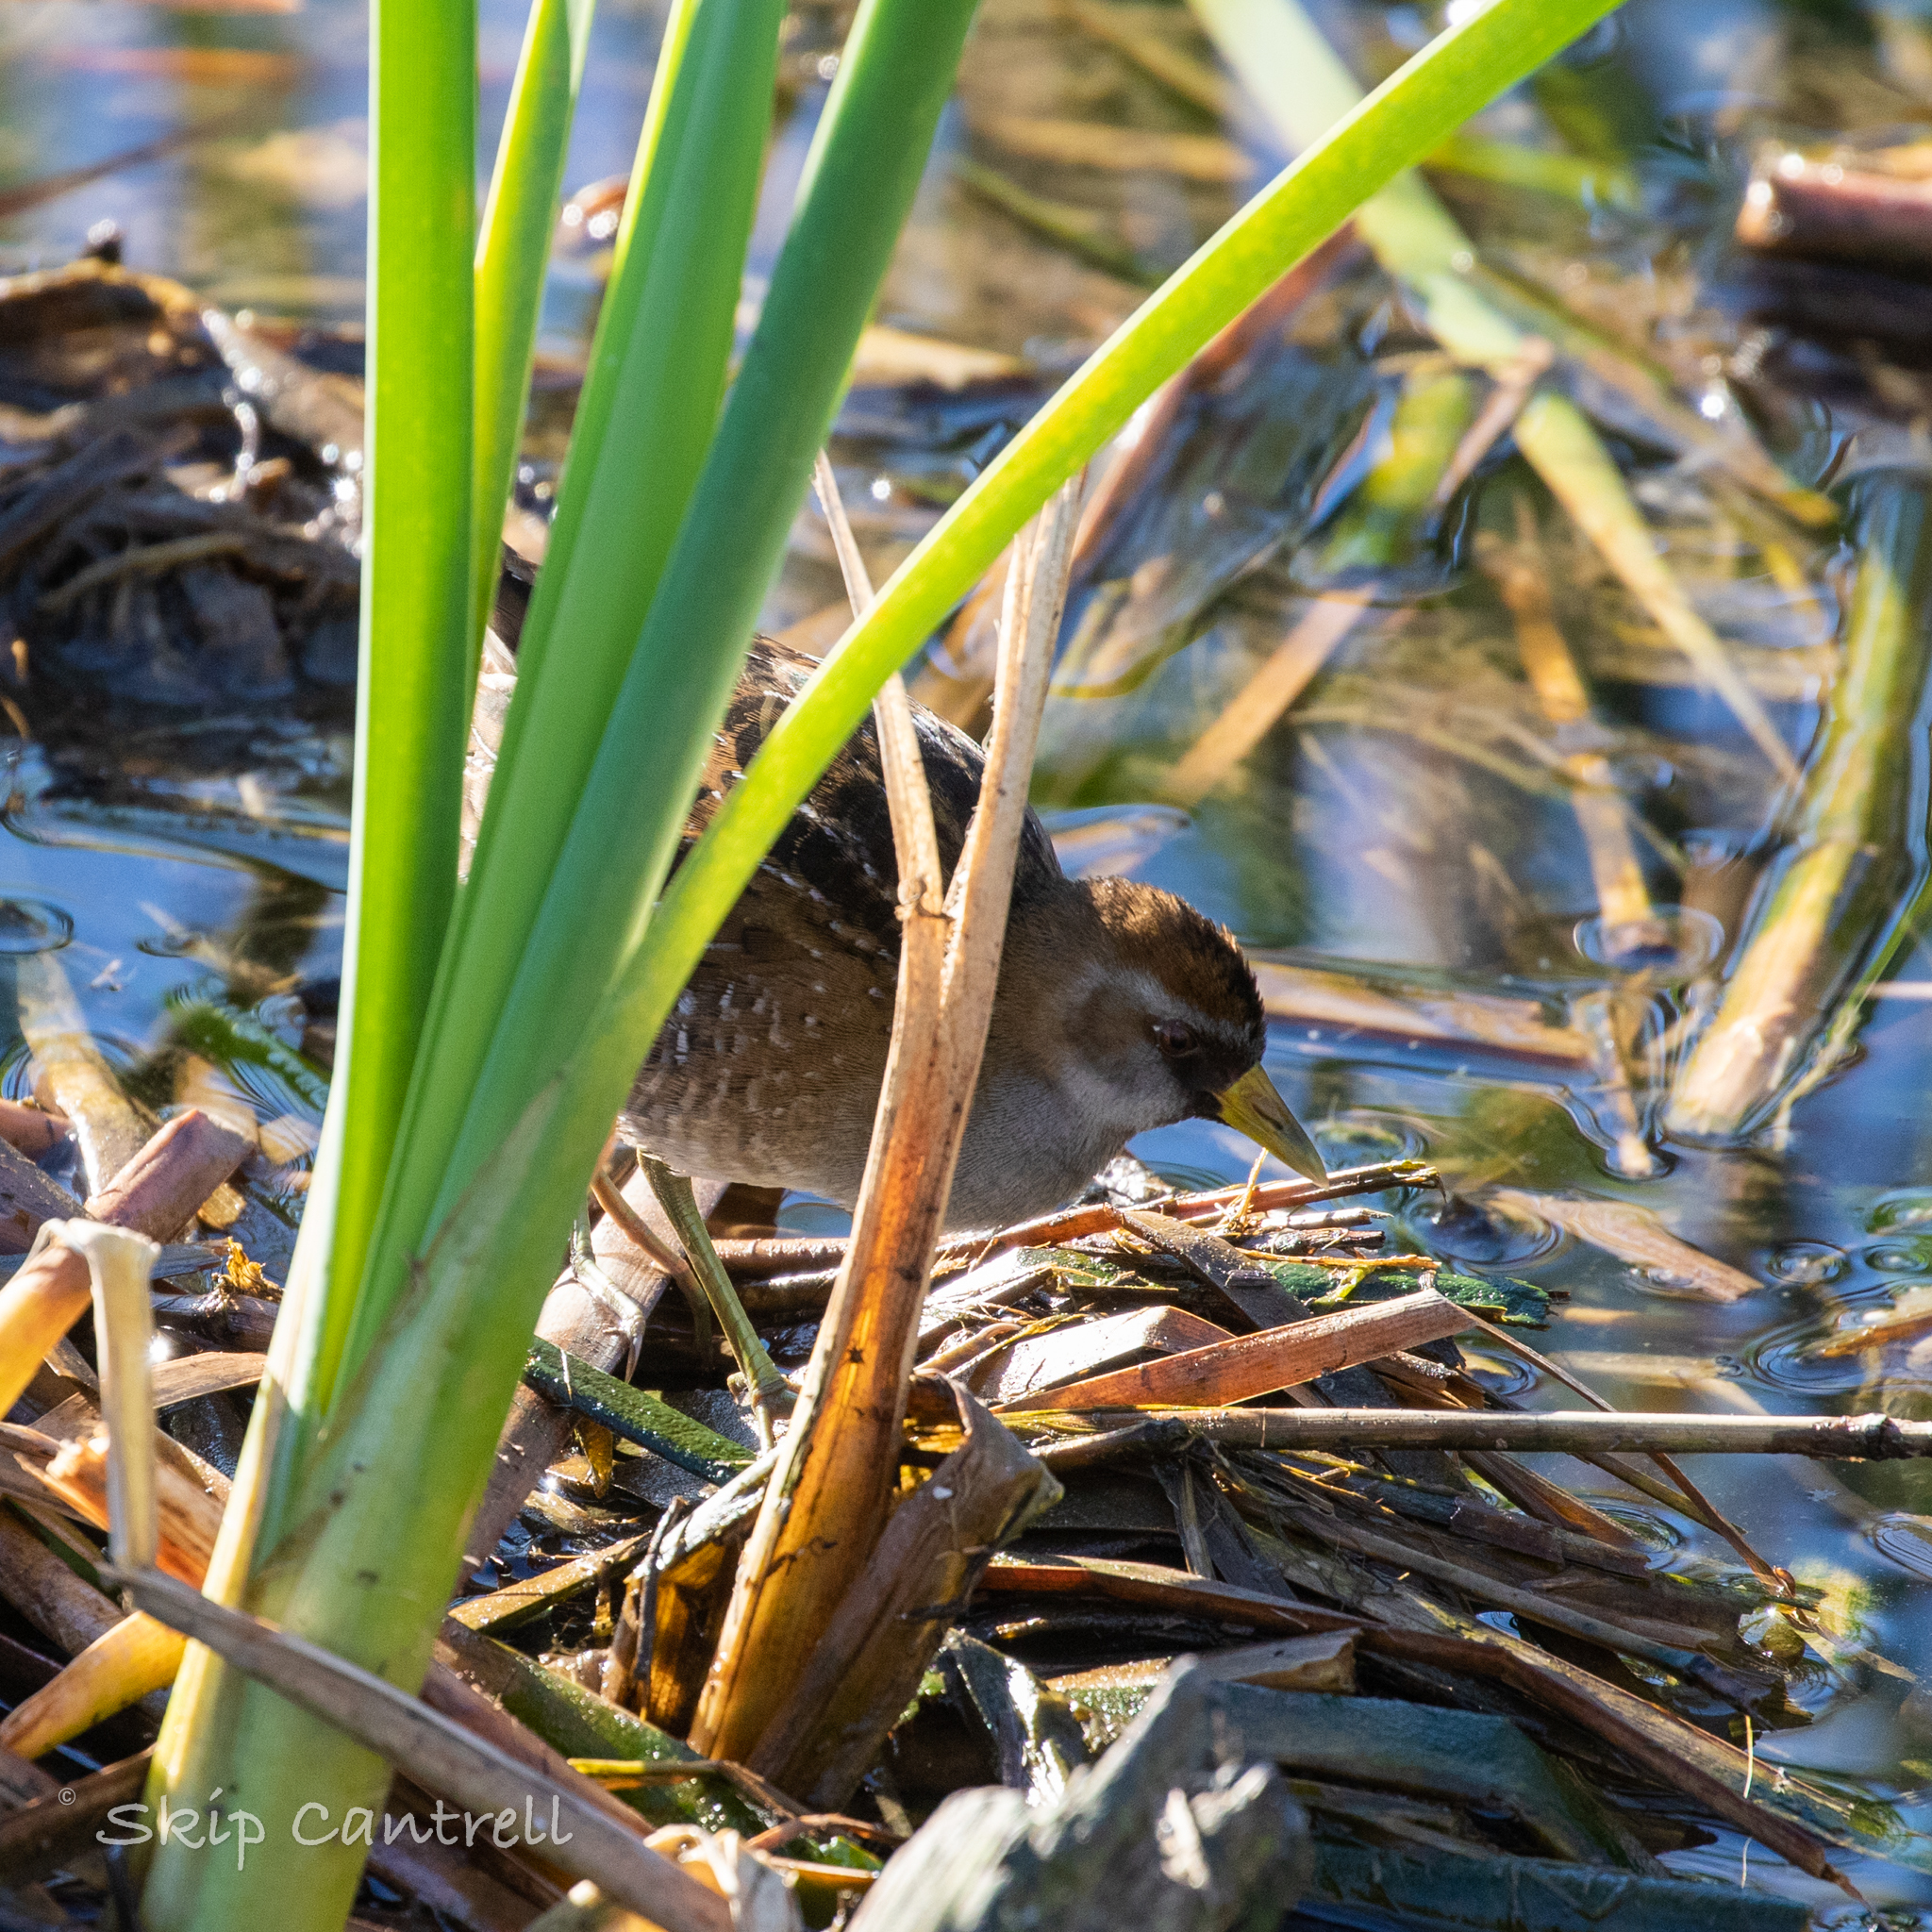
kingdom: Animalia
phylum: Chordata
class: Aves
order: Gruiformes
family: Rallidae
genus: Porzana
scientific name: Porzana carolina
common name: Sora
